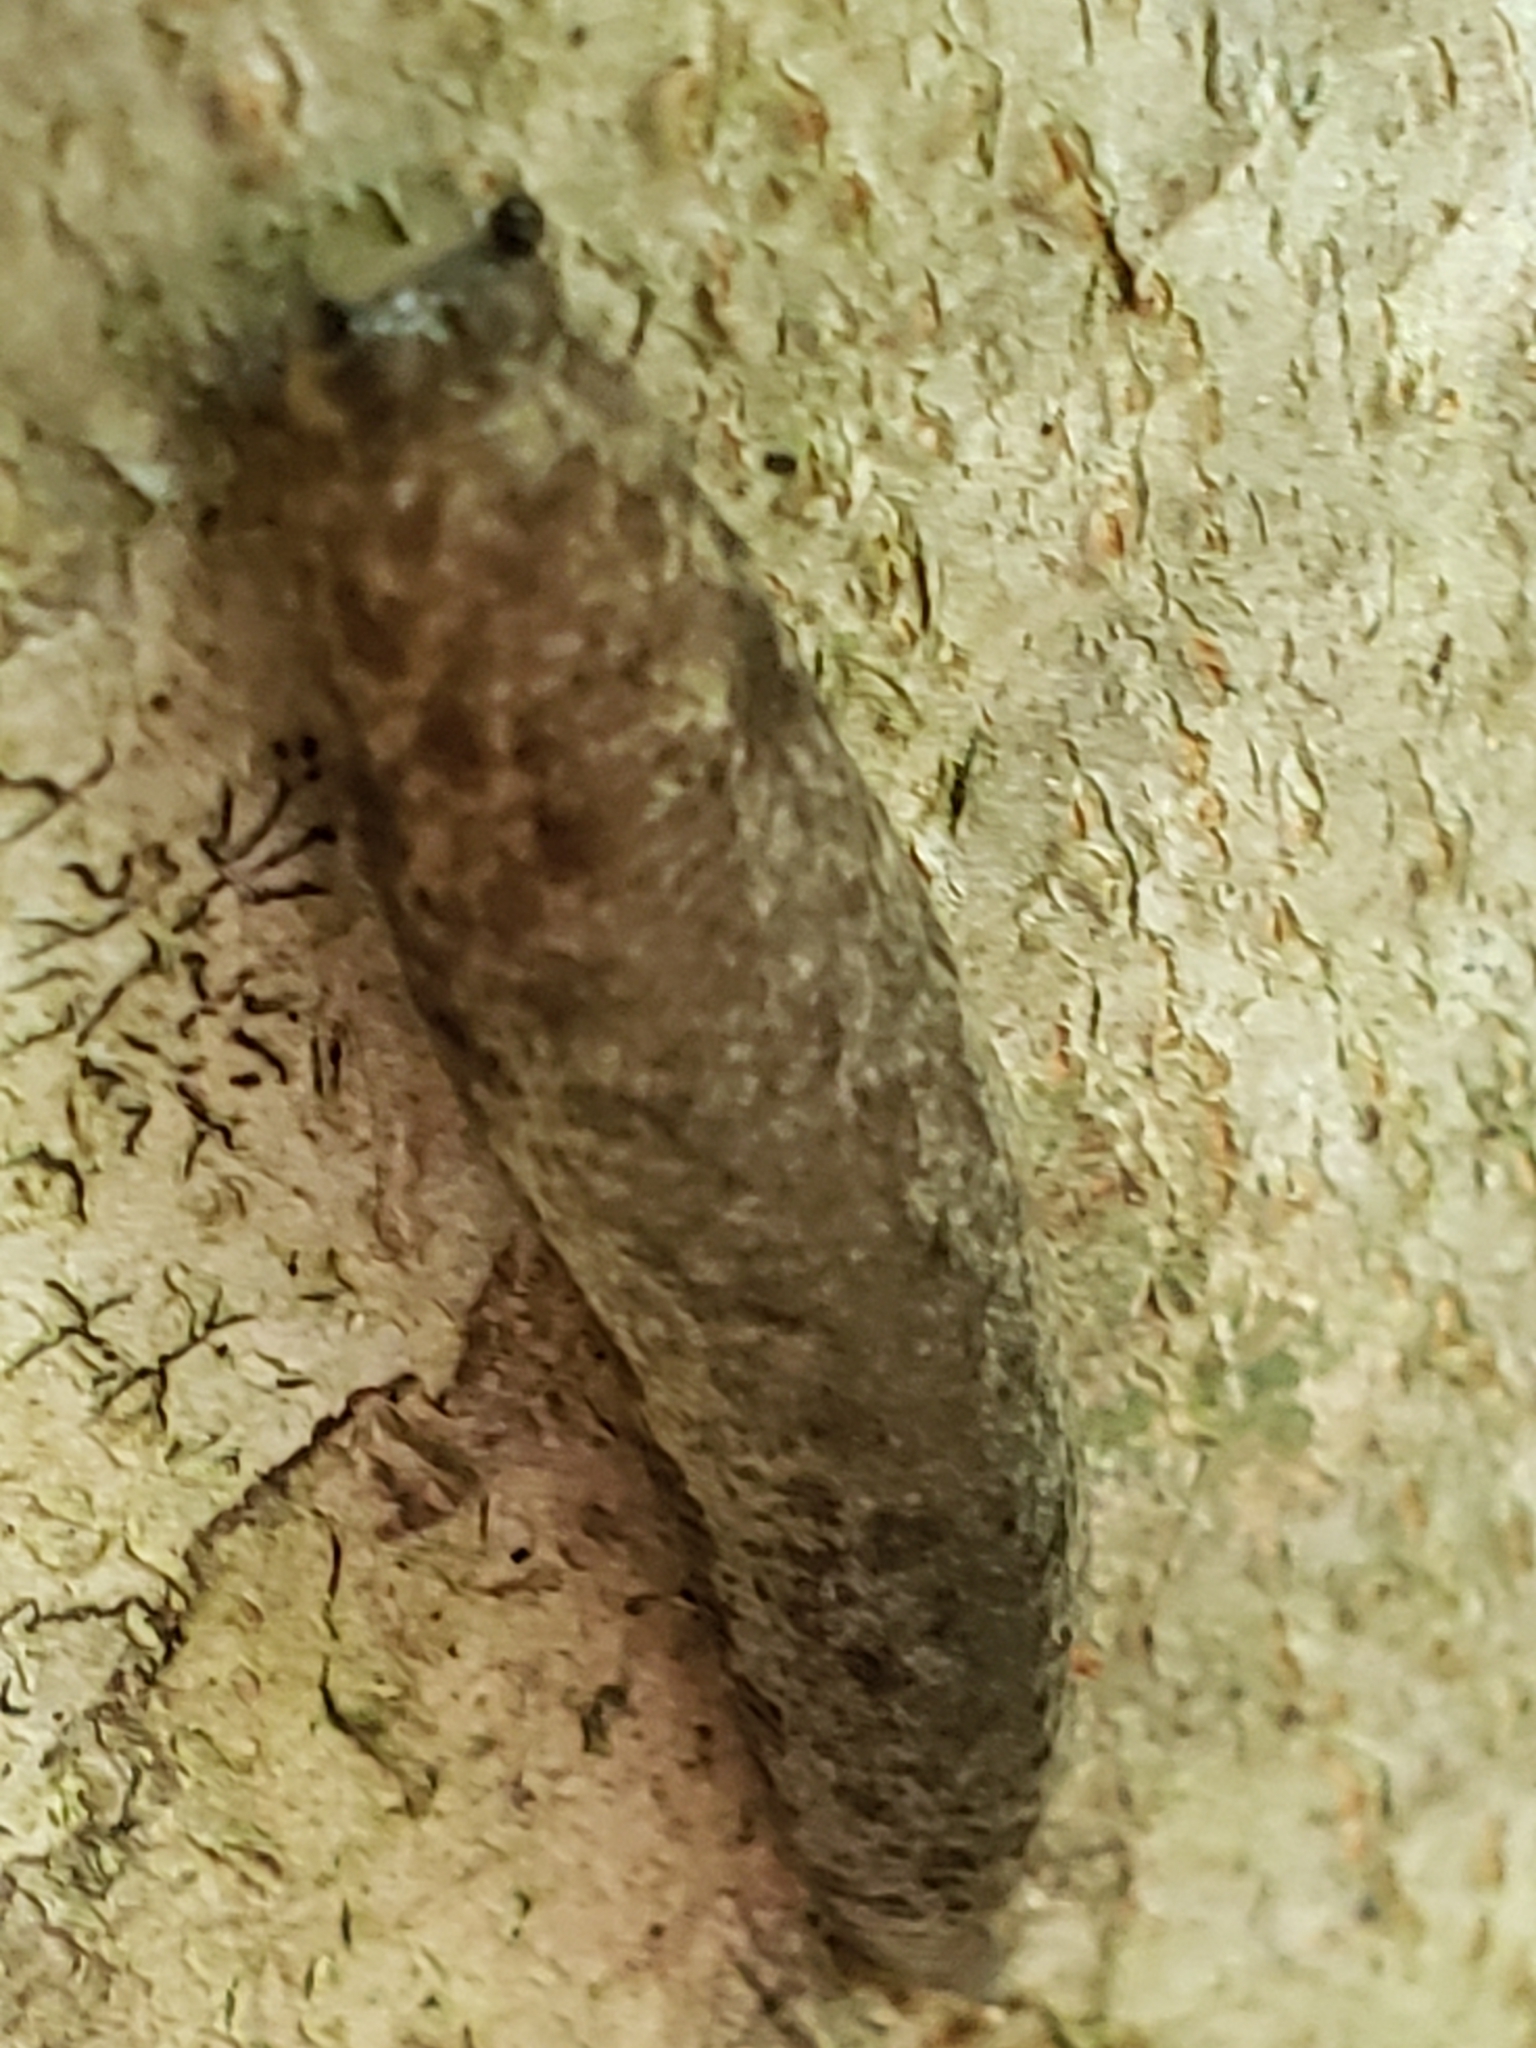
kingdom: Animalia
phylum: Mollusca
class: Gastropoda
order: Stylommatophora
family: Philomycidae
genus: Megapallifera
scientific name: Megapallifera mutabilis
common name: Changeable mantleslug
